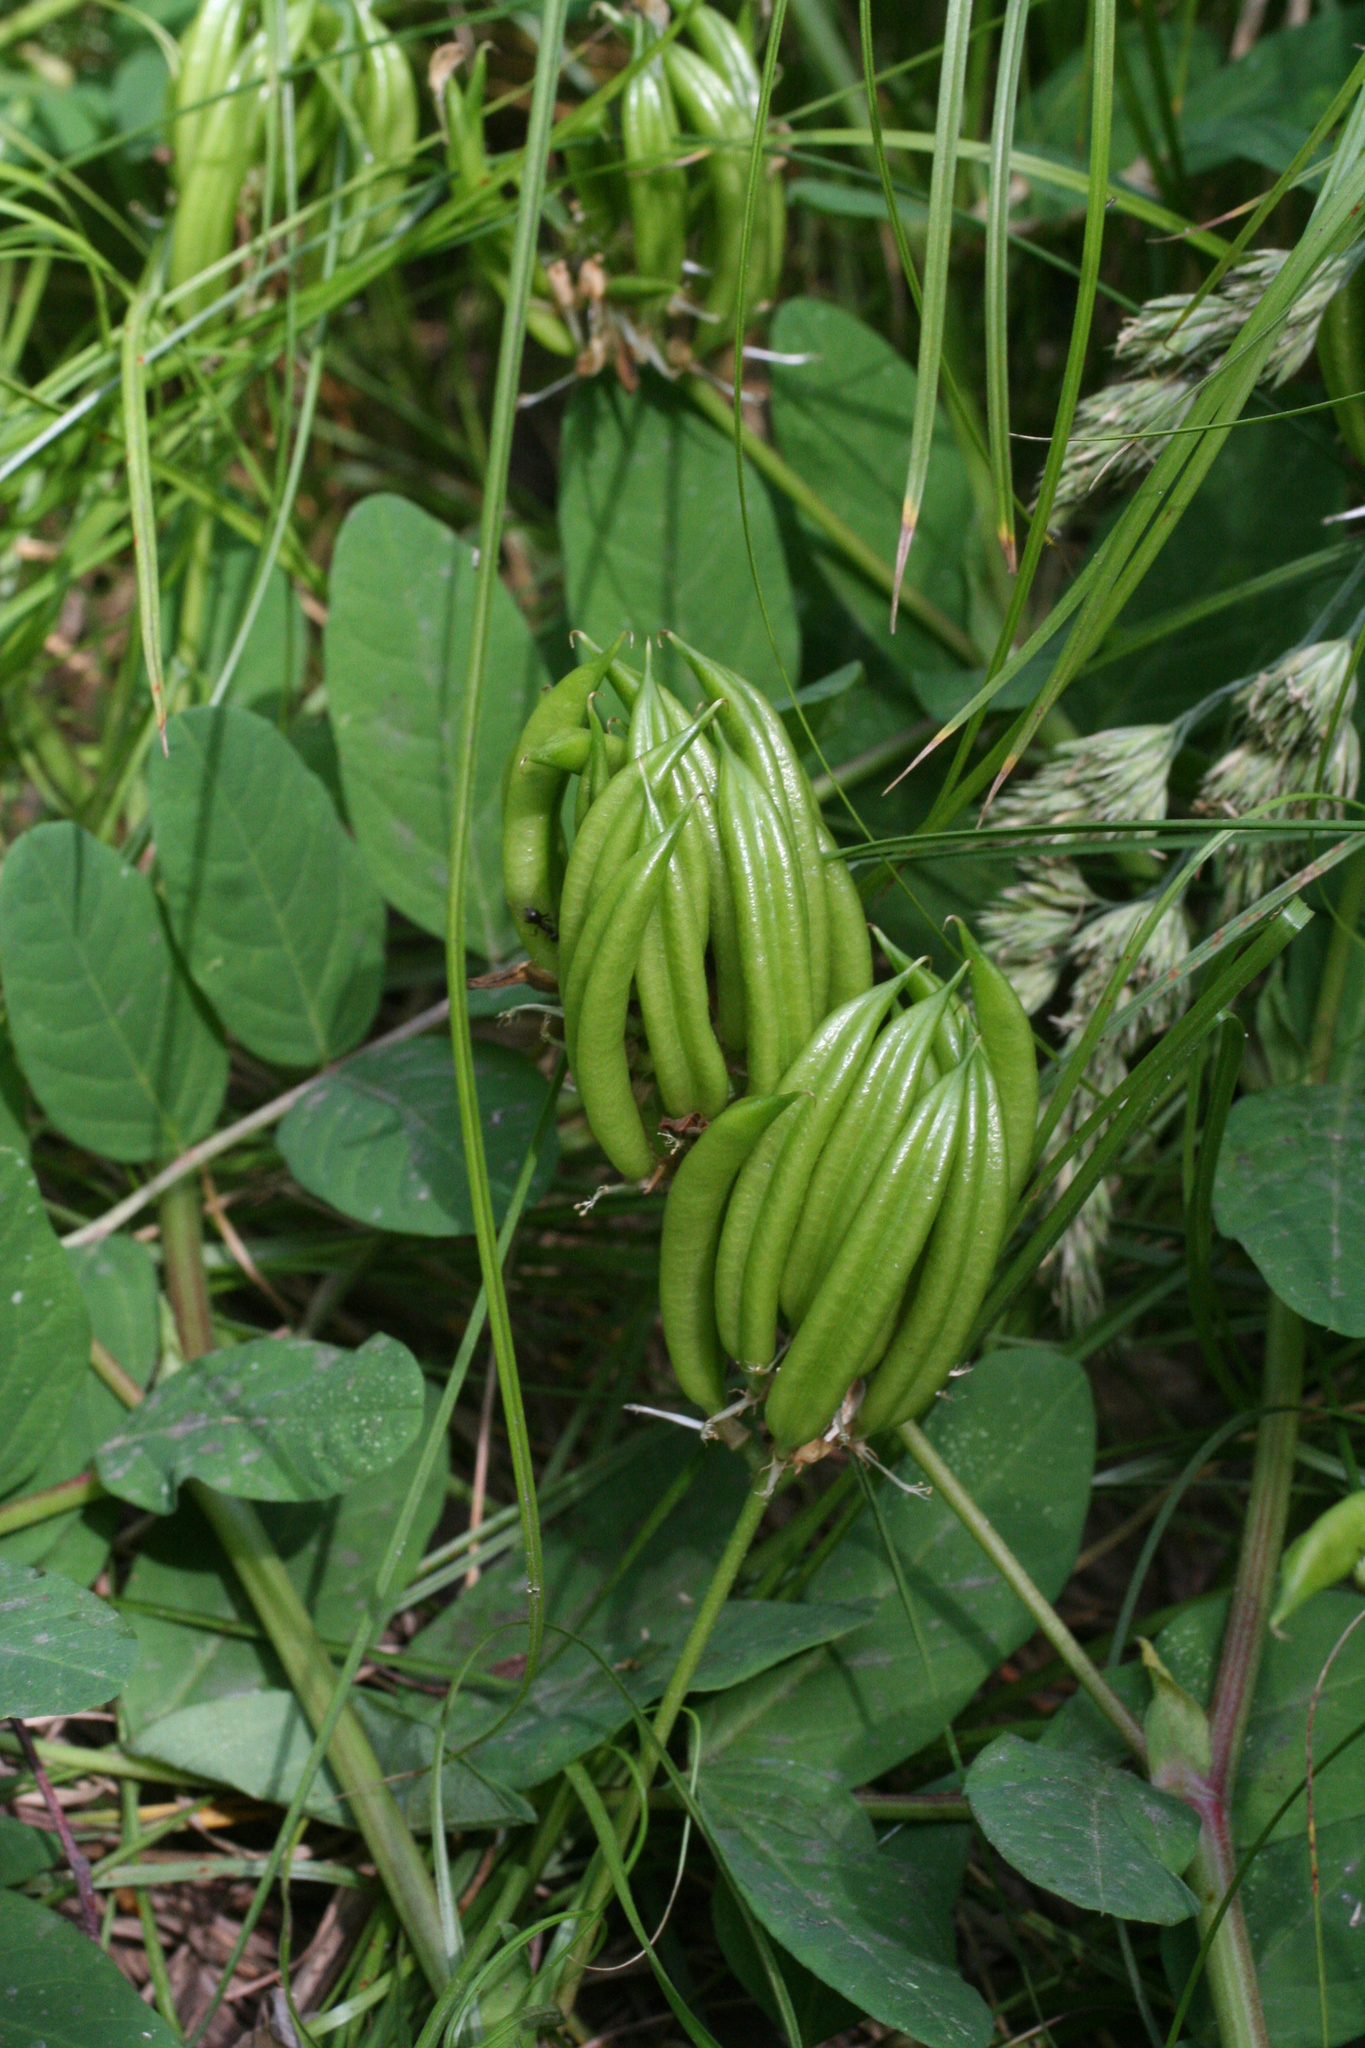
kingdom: Plantae
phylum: Tracheophyta
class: Magnoliopsida
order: Fabales
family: Fabaceae
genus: Astragalus
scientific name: Astragalus glycyphyllos
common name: Wild liquorice
